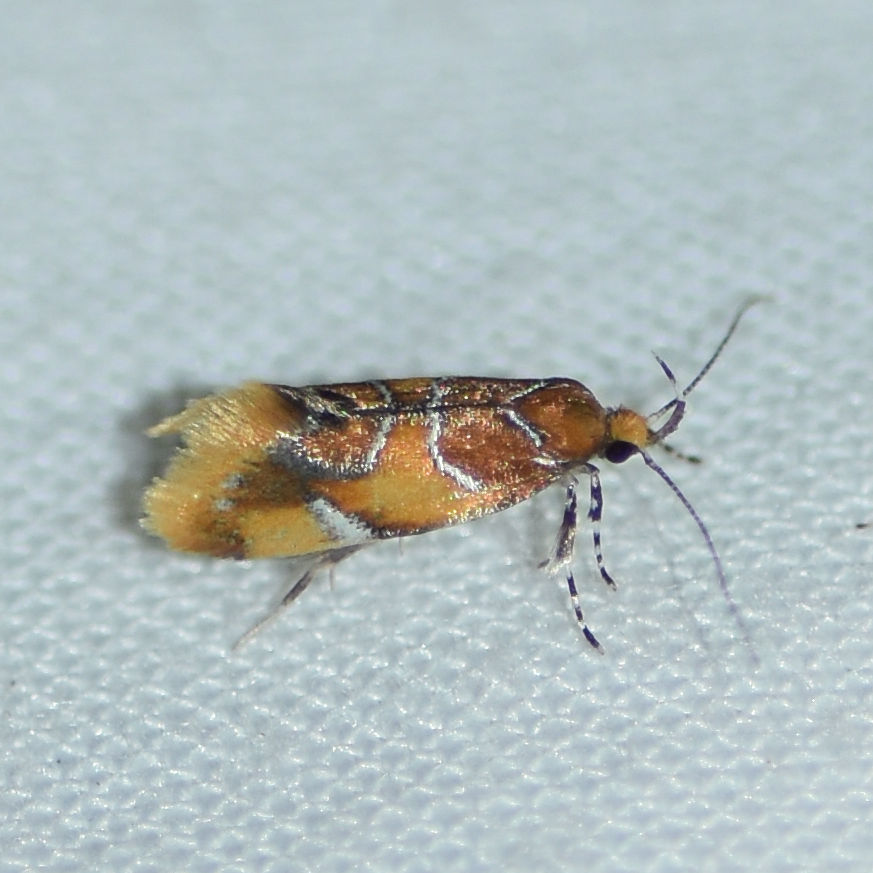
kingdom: Animalia
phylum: Arthropoda
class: Insecta
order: Lepidoptera
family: Oecophoridae
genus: Callima
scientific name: Callima argenticinctella
